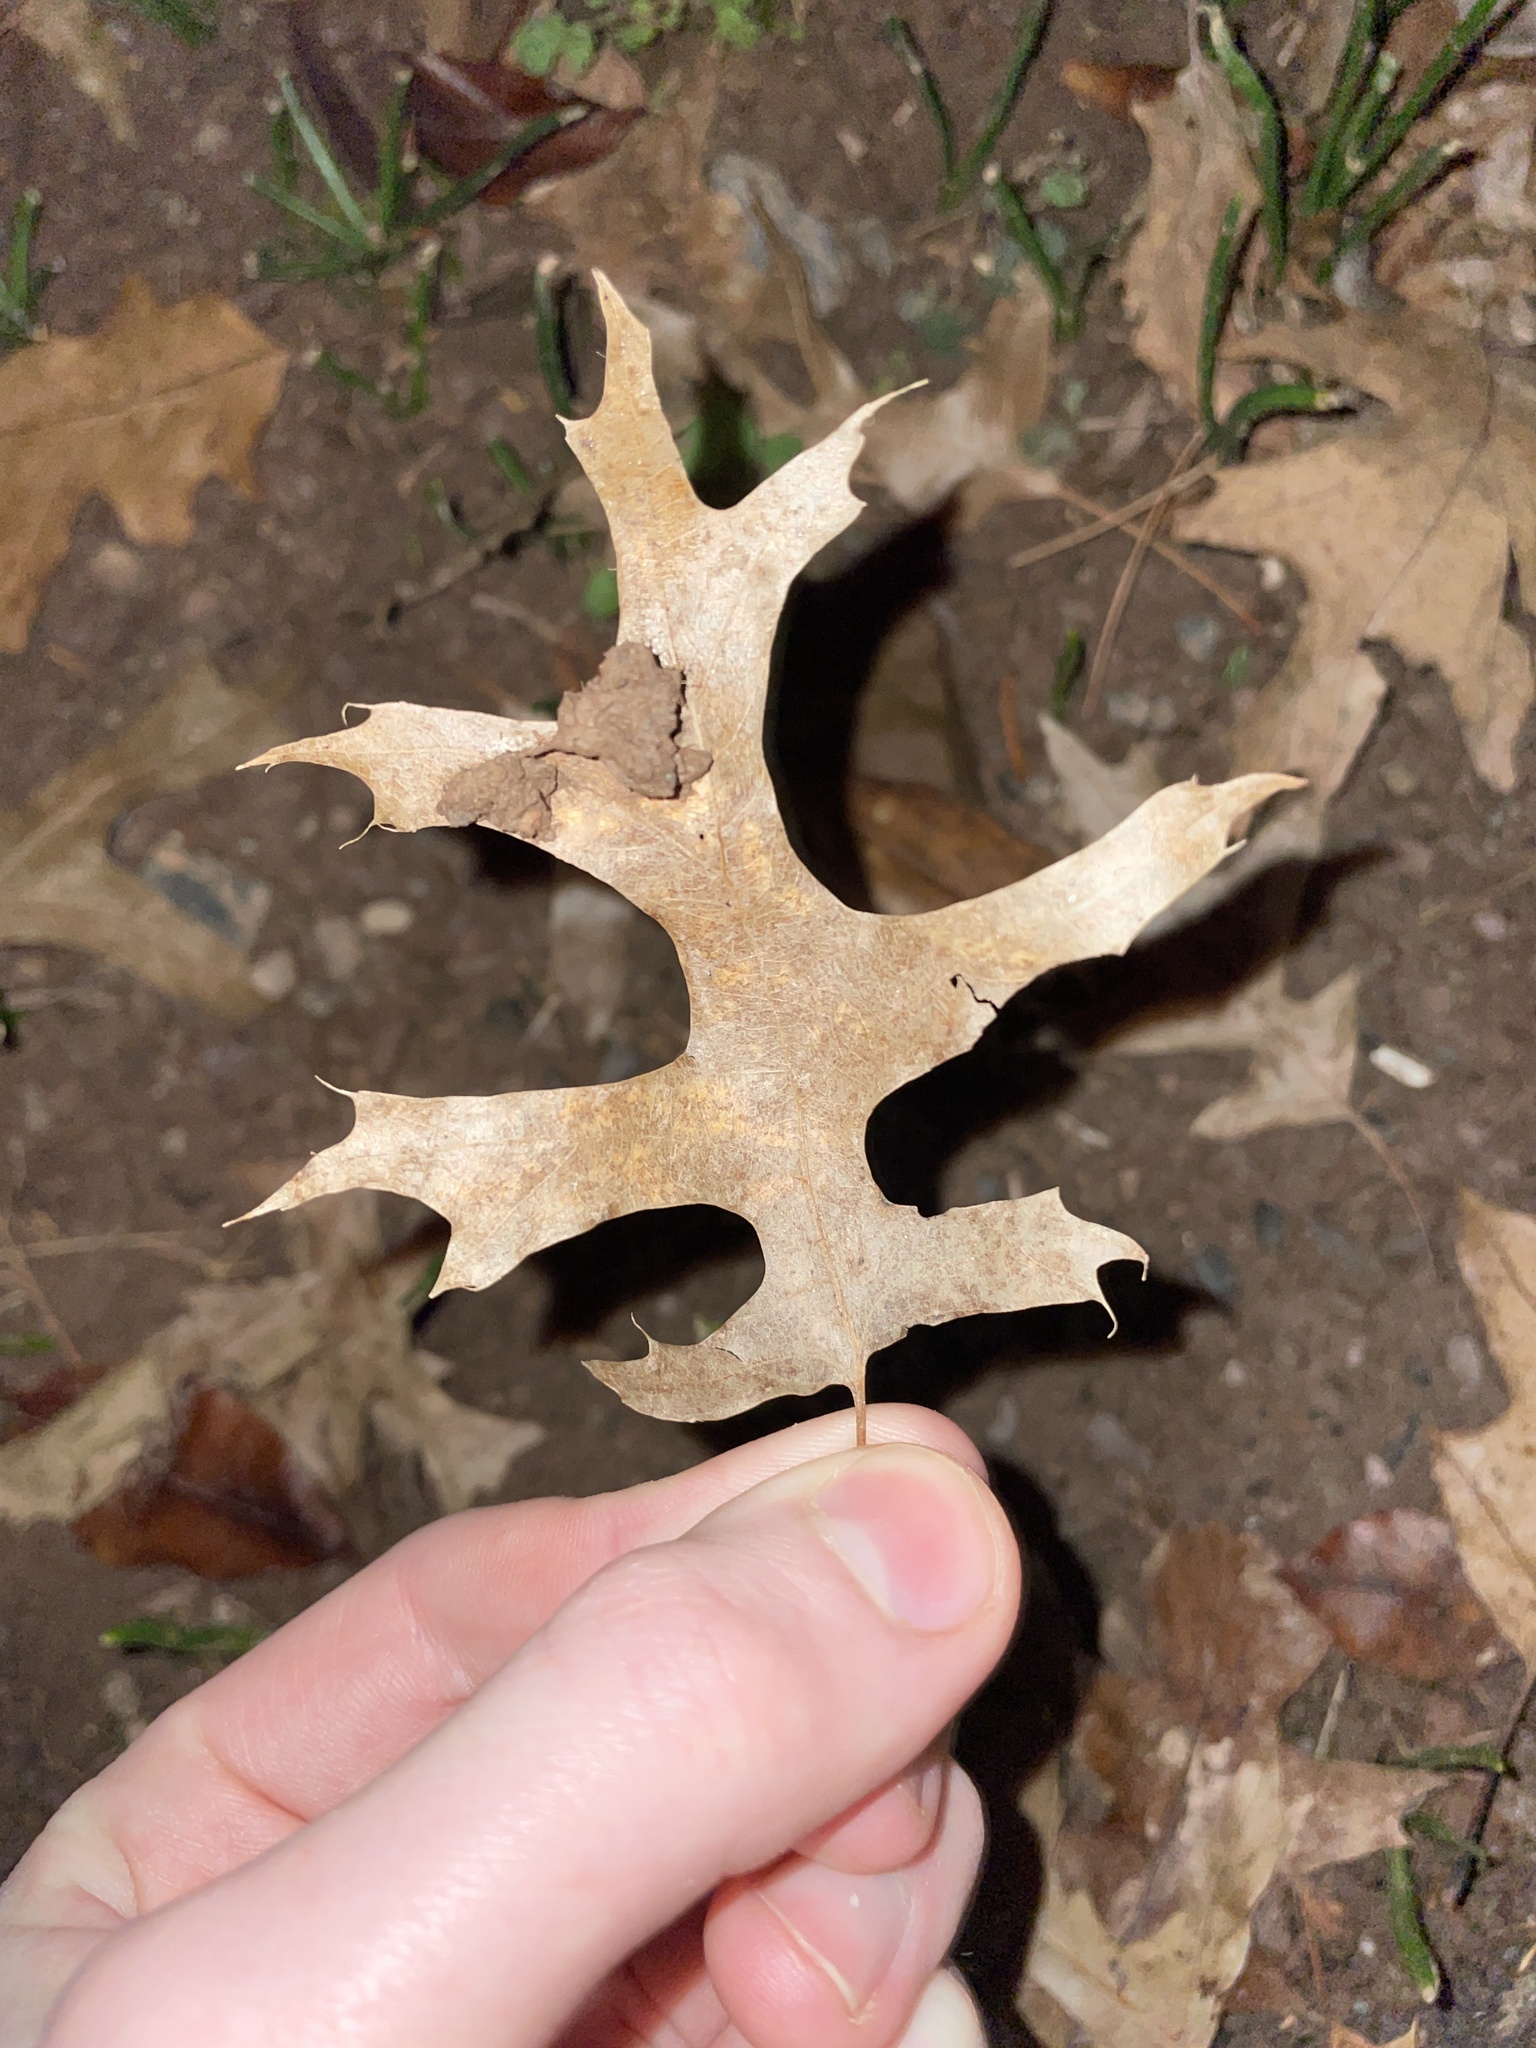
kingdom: Plantae
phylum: Tracheophyta
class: Magnoliopsida
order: Fagales
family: Fagaceae
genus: Quercus
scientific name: Quercus palustris
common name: Pin oak
